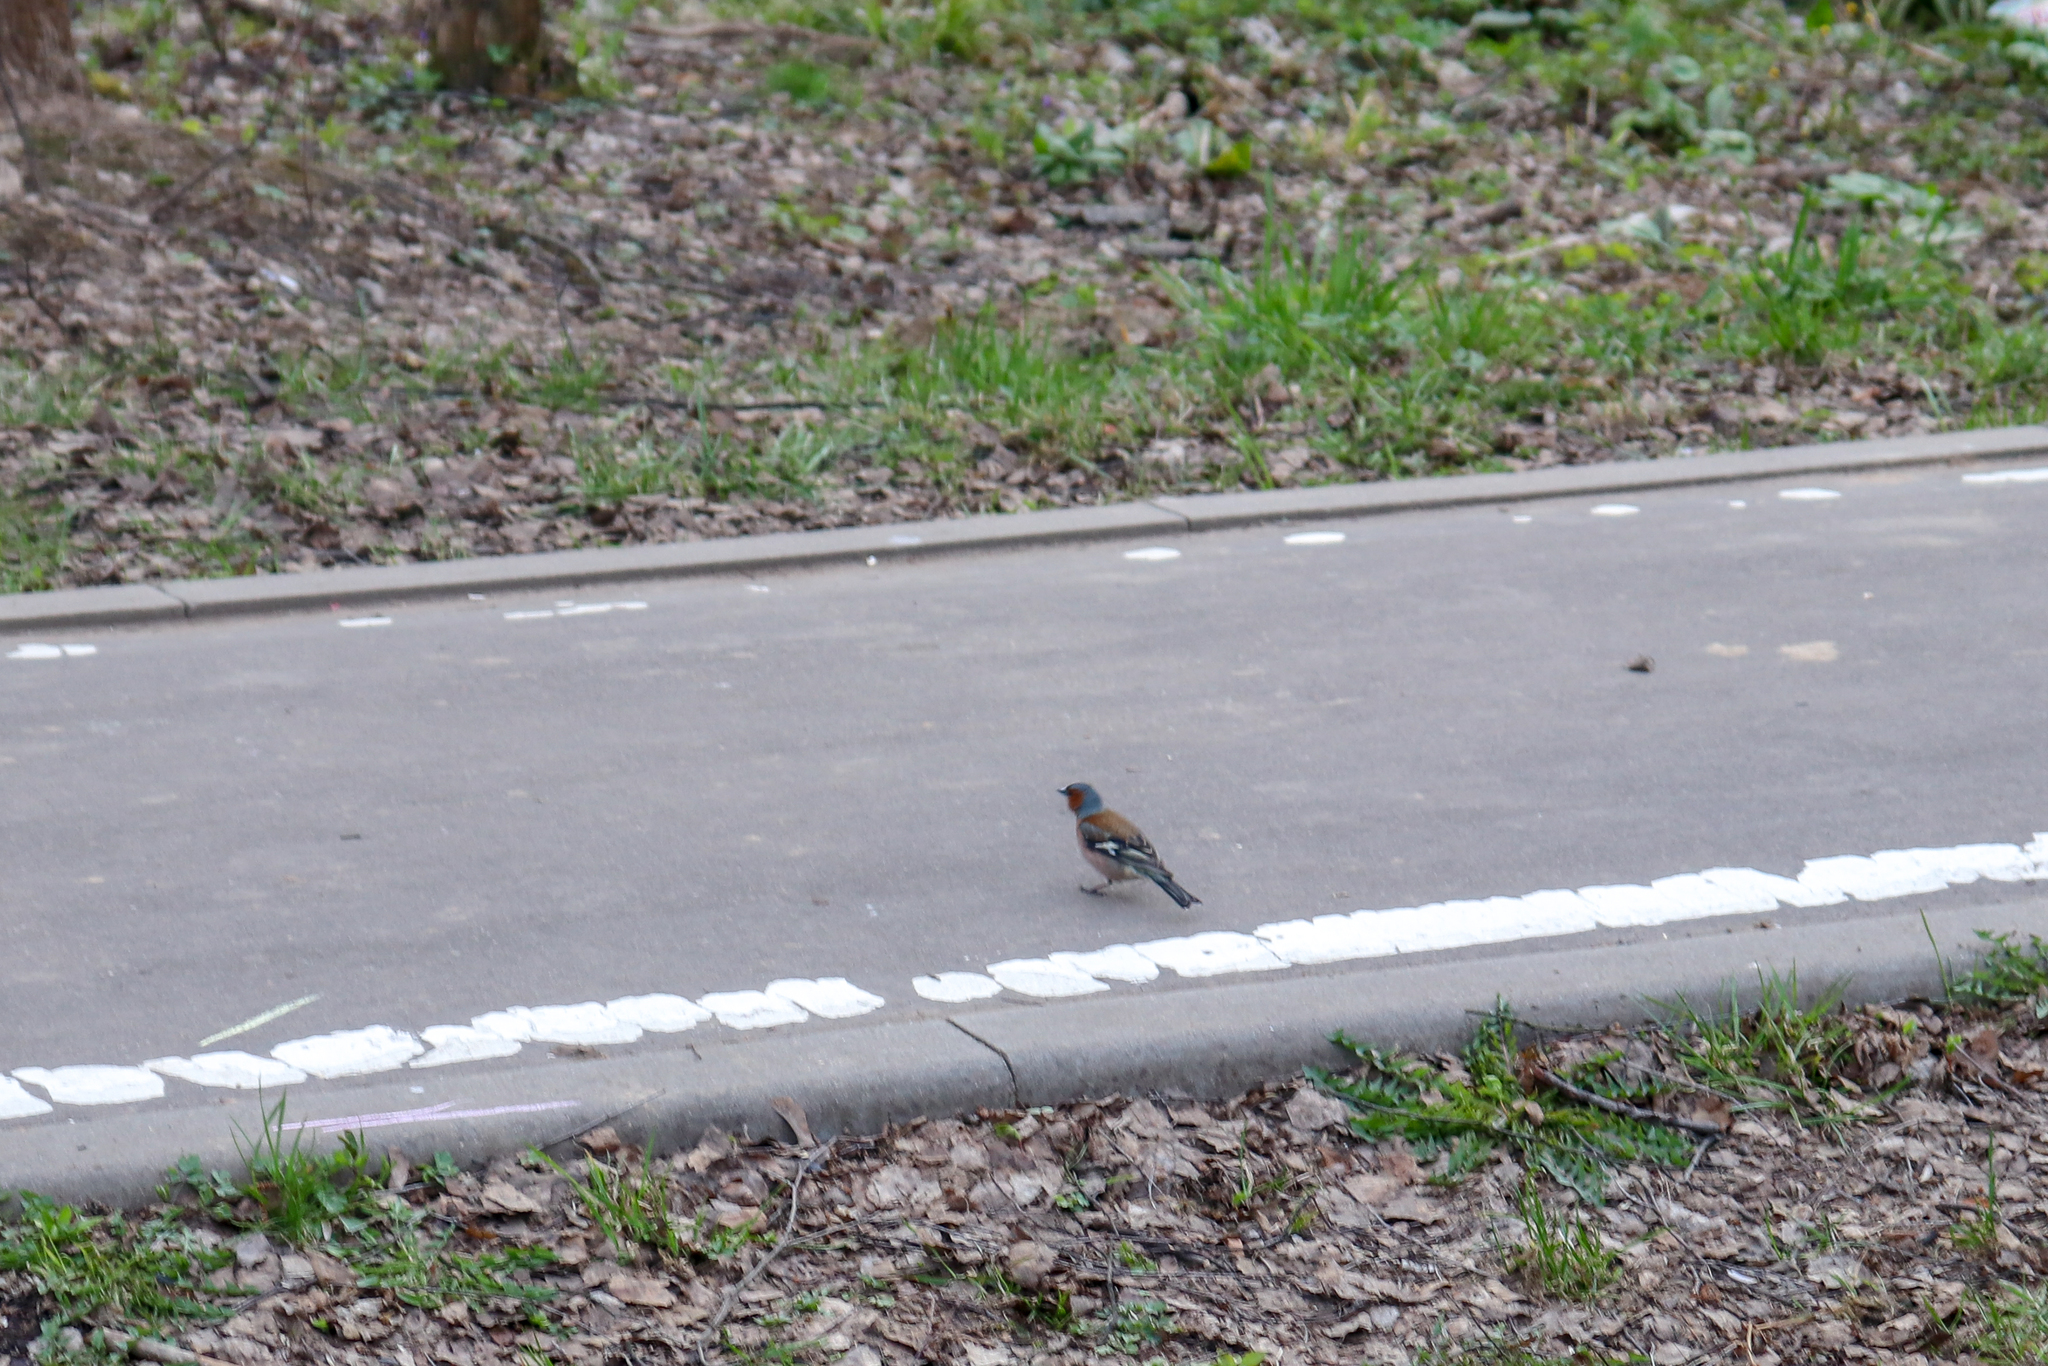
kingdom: Animalia
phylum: Chordata
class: Aves
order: Passeriformes
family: Fringillidae
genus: Fringilla
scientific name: Fringilla coelebs
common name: Common chaffinch
